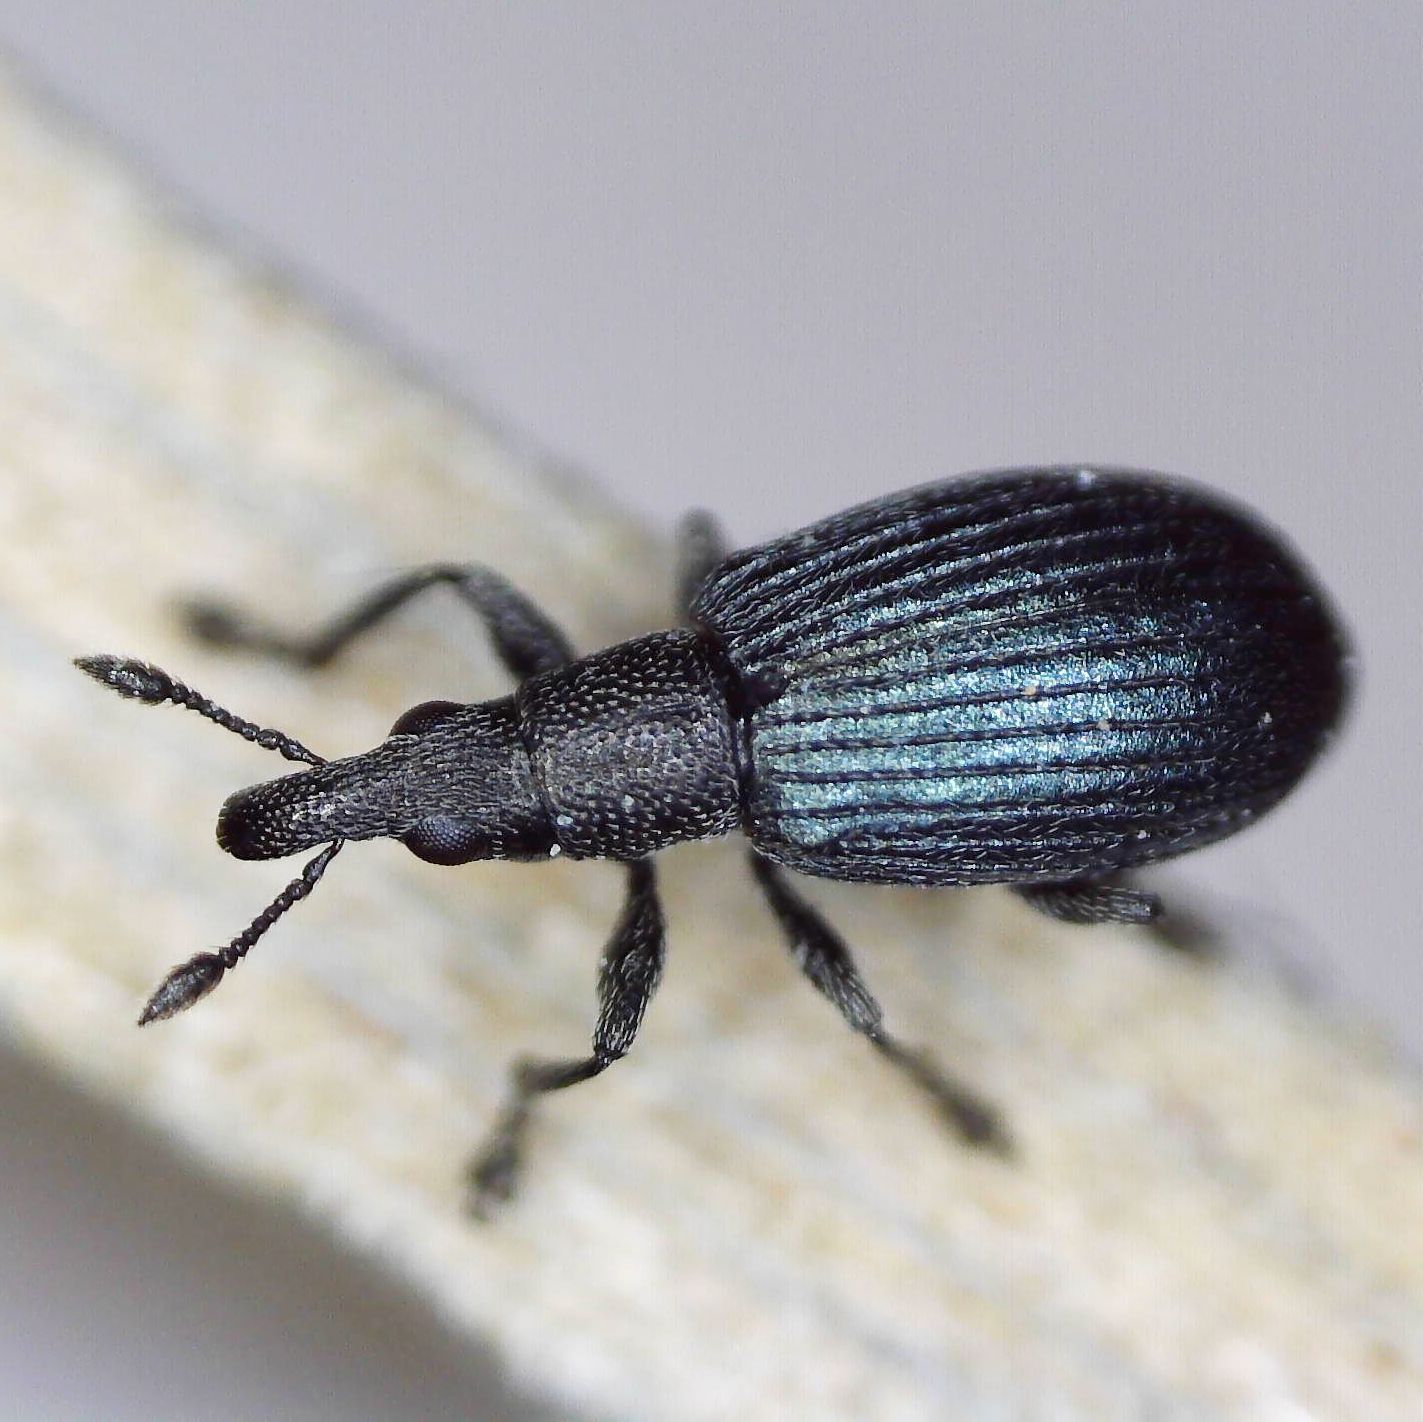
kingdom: Animalia
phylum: Arthropoda
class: Insecta
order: Coleoptera
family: Brentidae
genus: Perapion
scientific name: Perapion hydrolapathi
